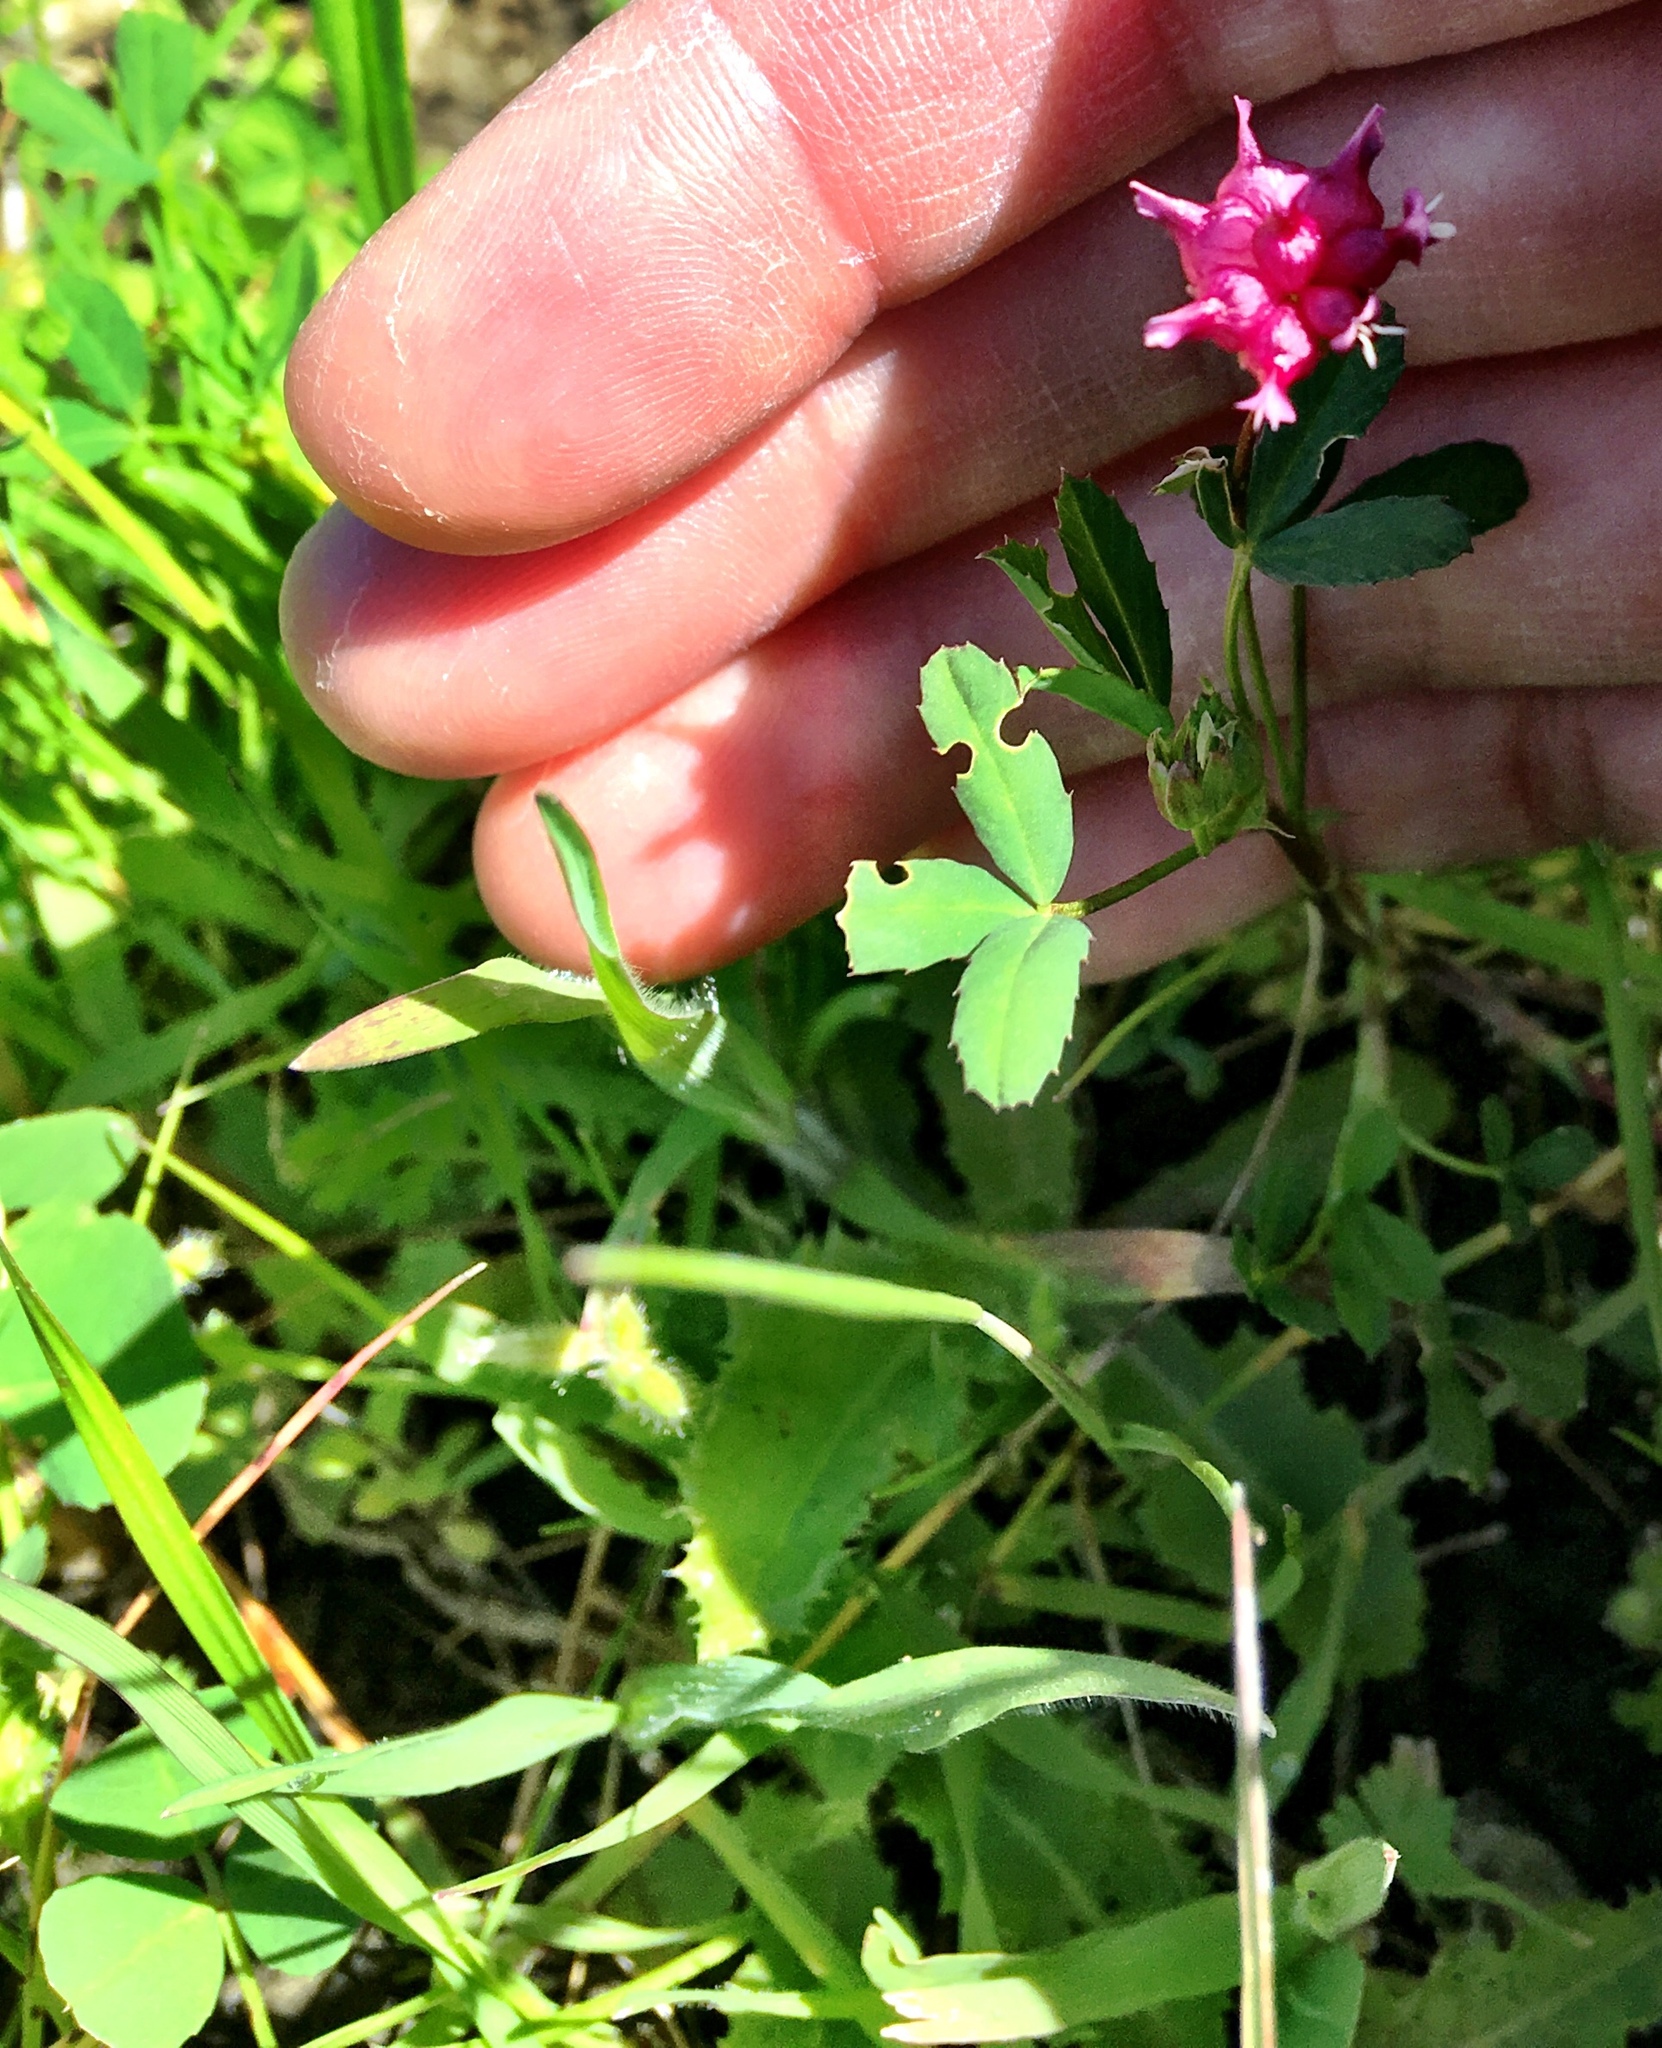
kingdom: Plantae
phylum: Tracheophyta
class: Magnoliopsida
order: Fabales
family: Fabaceae
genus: Trifolium
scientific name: Trifolium depauperatum
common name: Poverty clover
